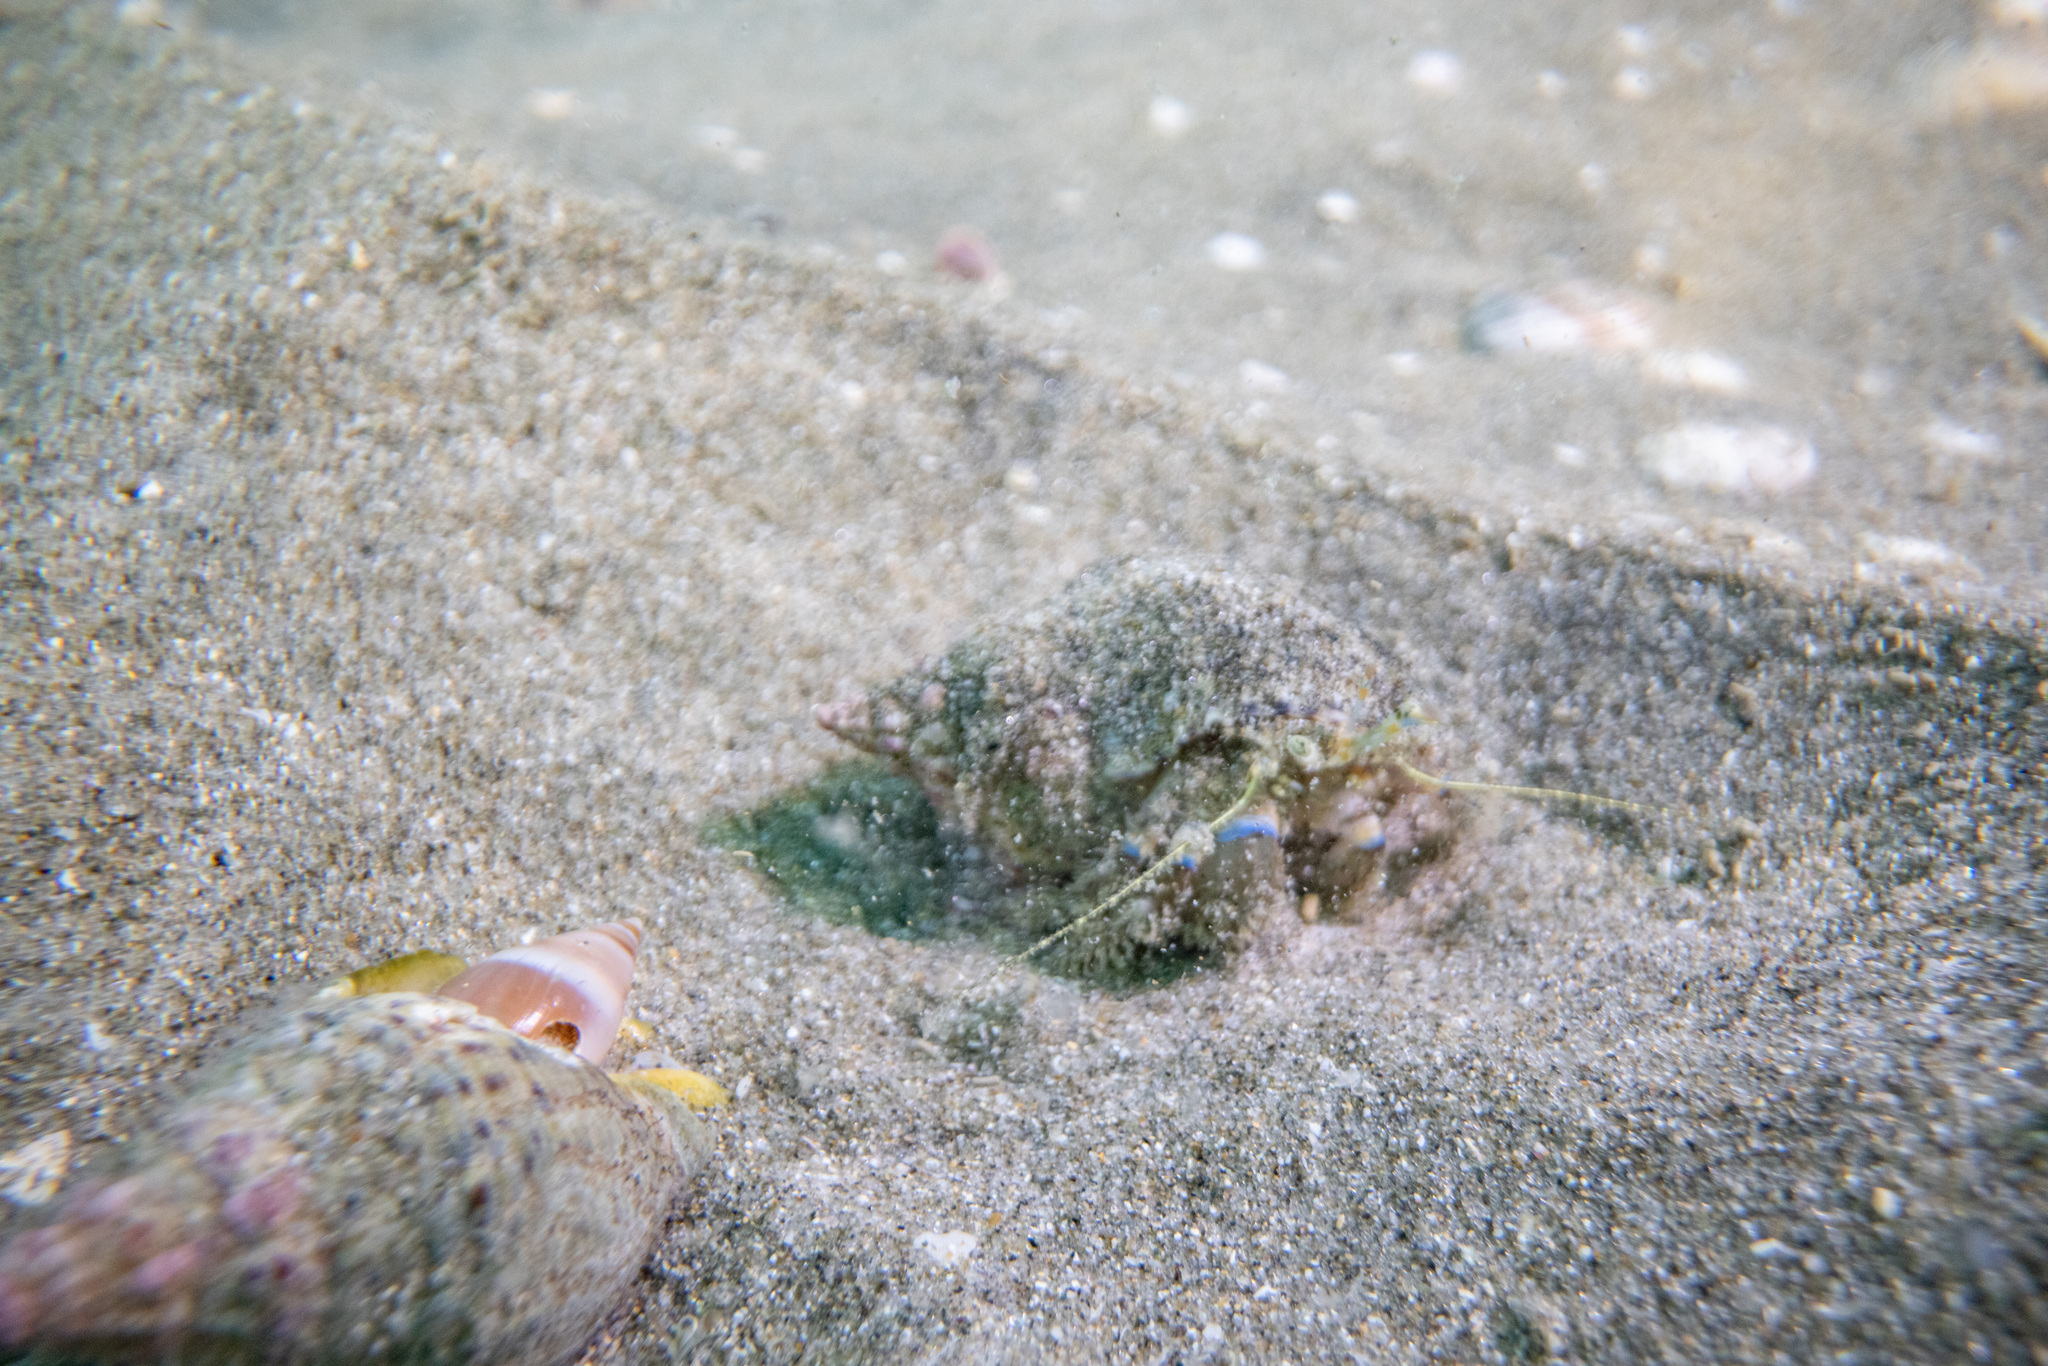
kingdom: Animalia
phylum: Arthropoda
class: Malacostraca
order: Decapoda
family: Paguridae
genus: Pagurus
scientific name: Pagurus novizealandiae
